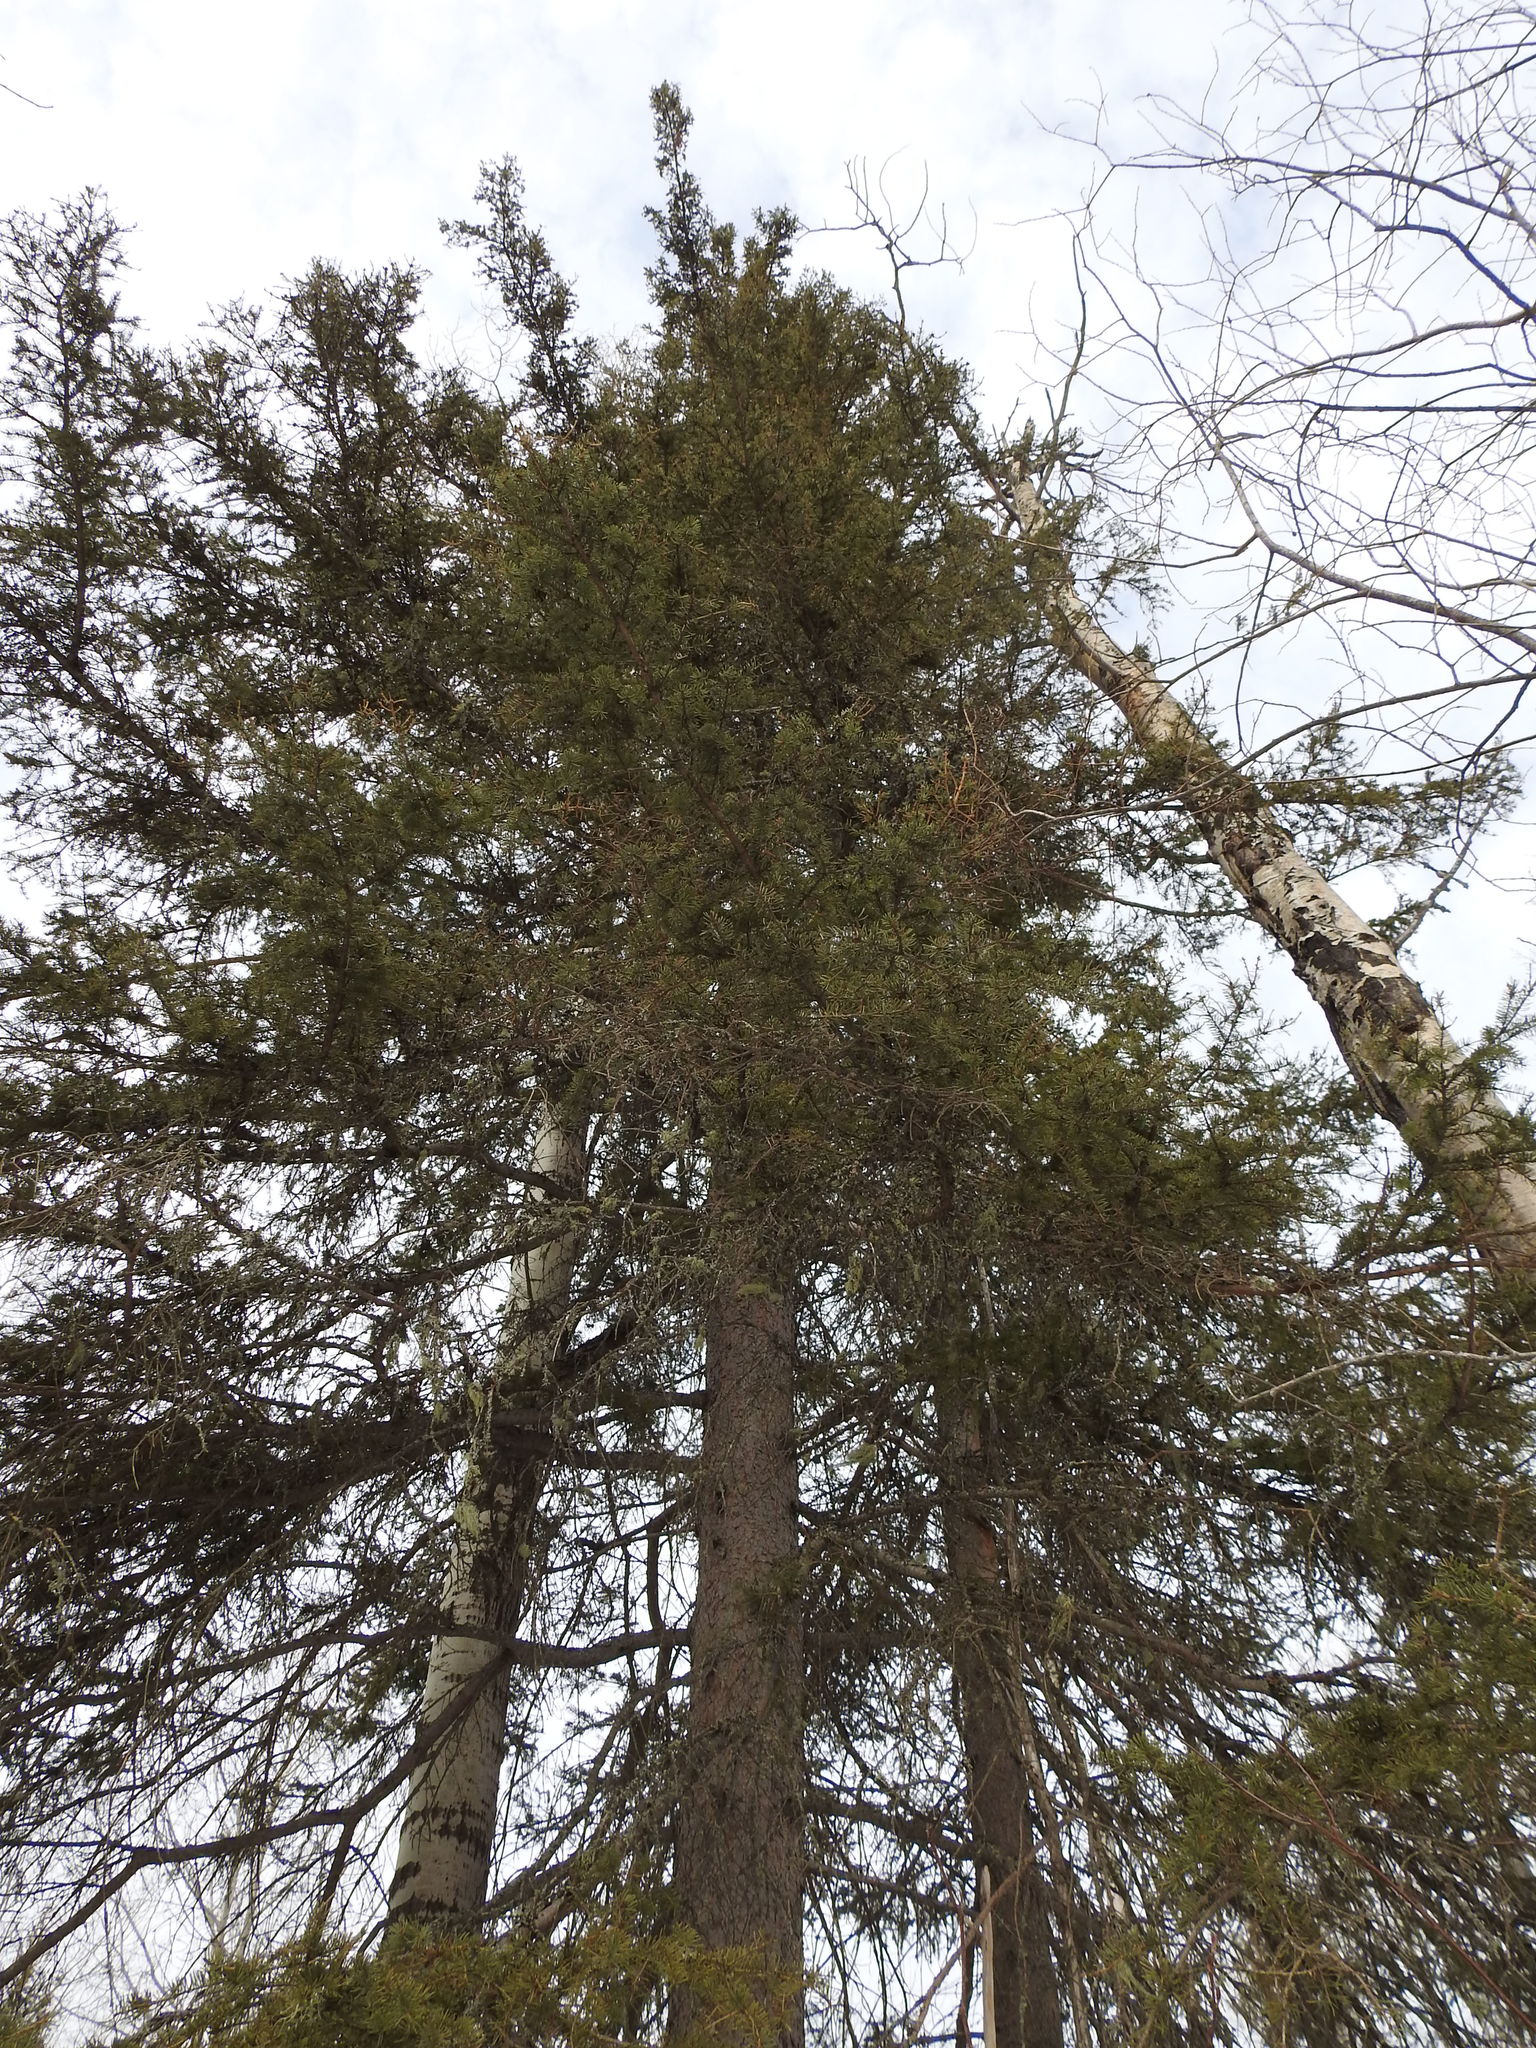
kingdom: Plantae
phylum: Tracheophyta
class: Pinopsida
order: Pinales
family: Pinaceae
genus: Picea
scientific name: Picea glauca
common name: White spruce
